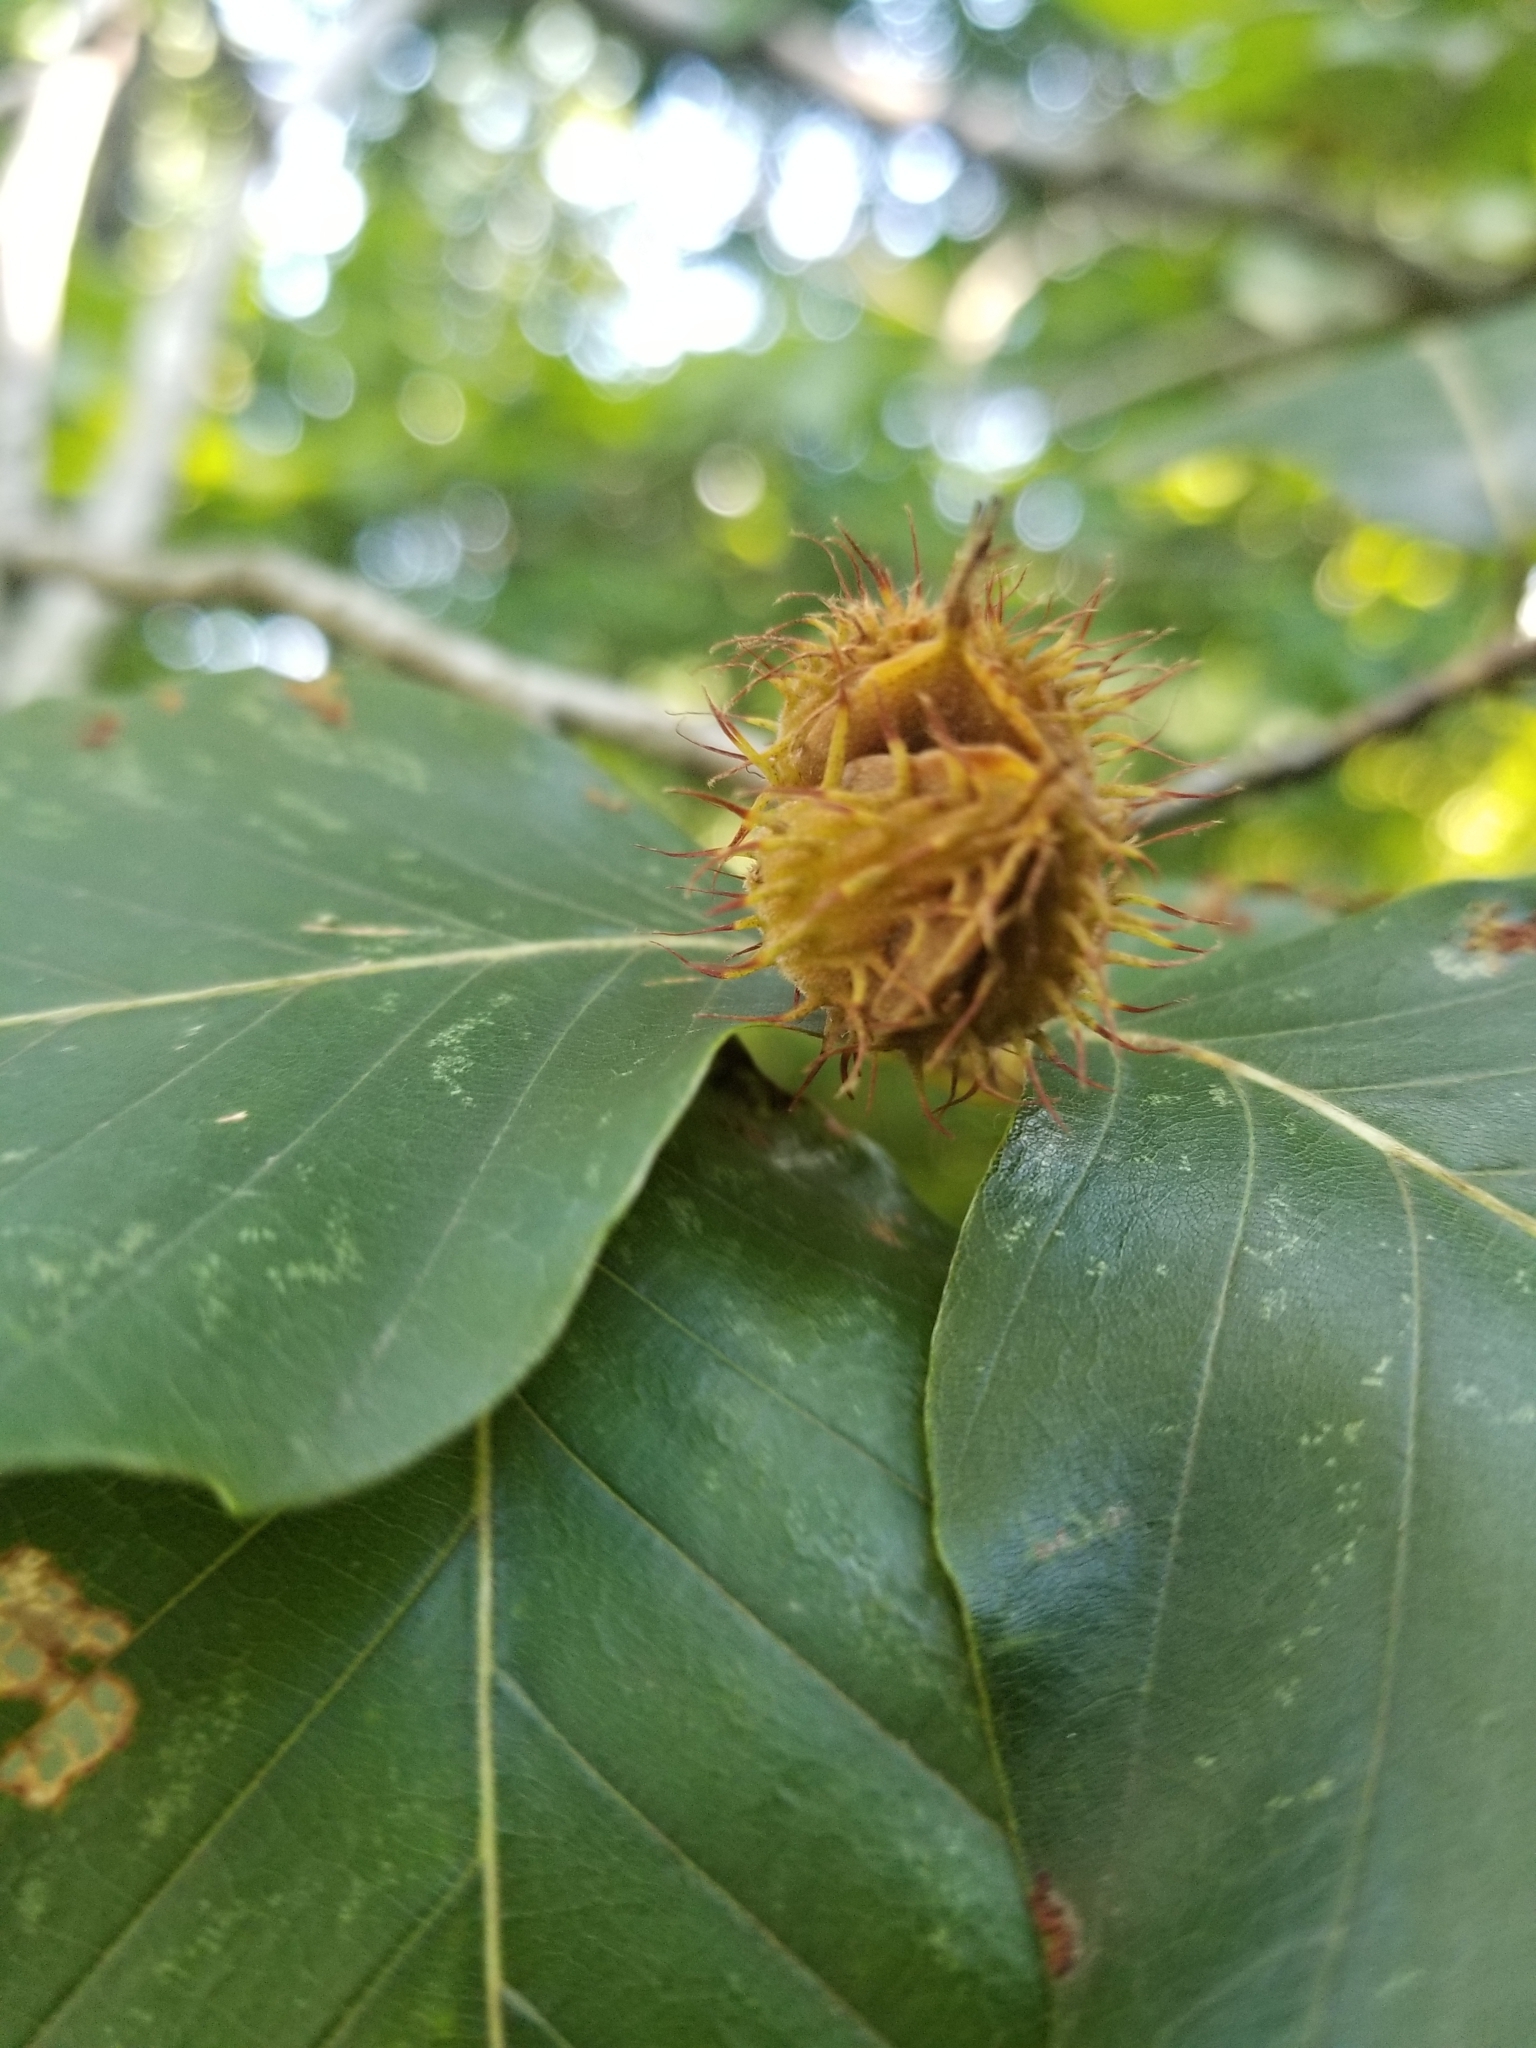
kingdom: Plantae
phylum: Tracheophyta
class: Magnoliopsida
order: Fagales
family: Fagaceae
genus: Fagus
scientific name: Fagus grandifolia
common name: American beech
